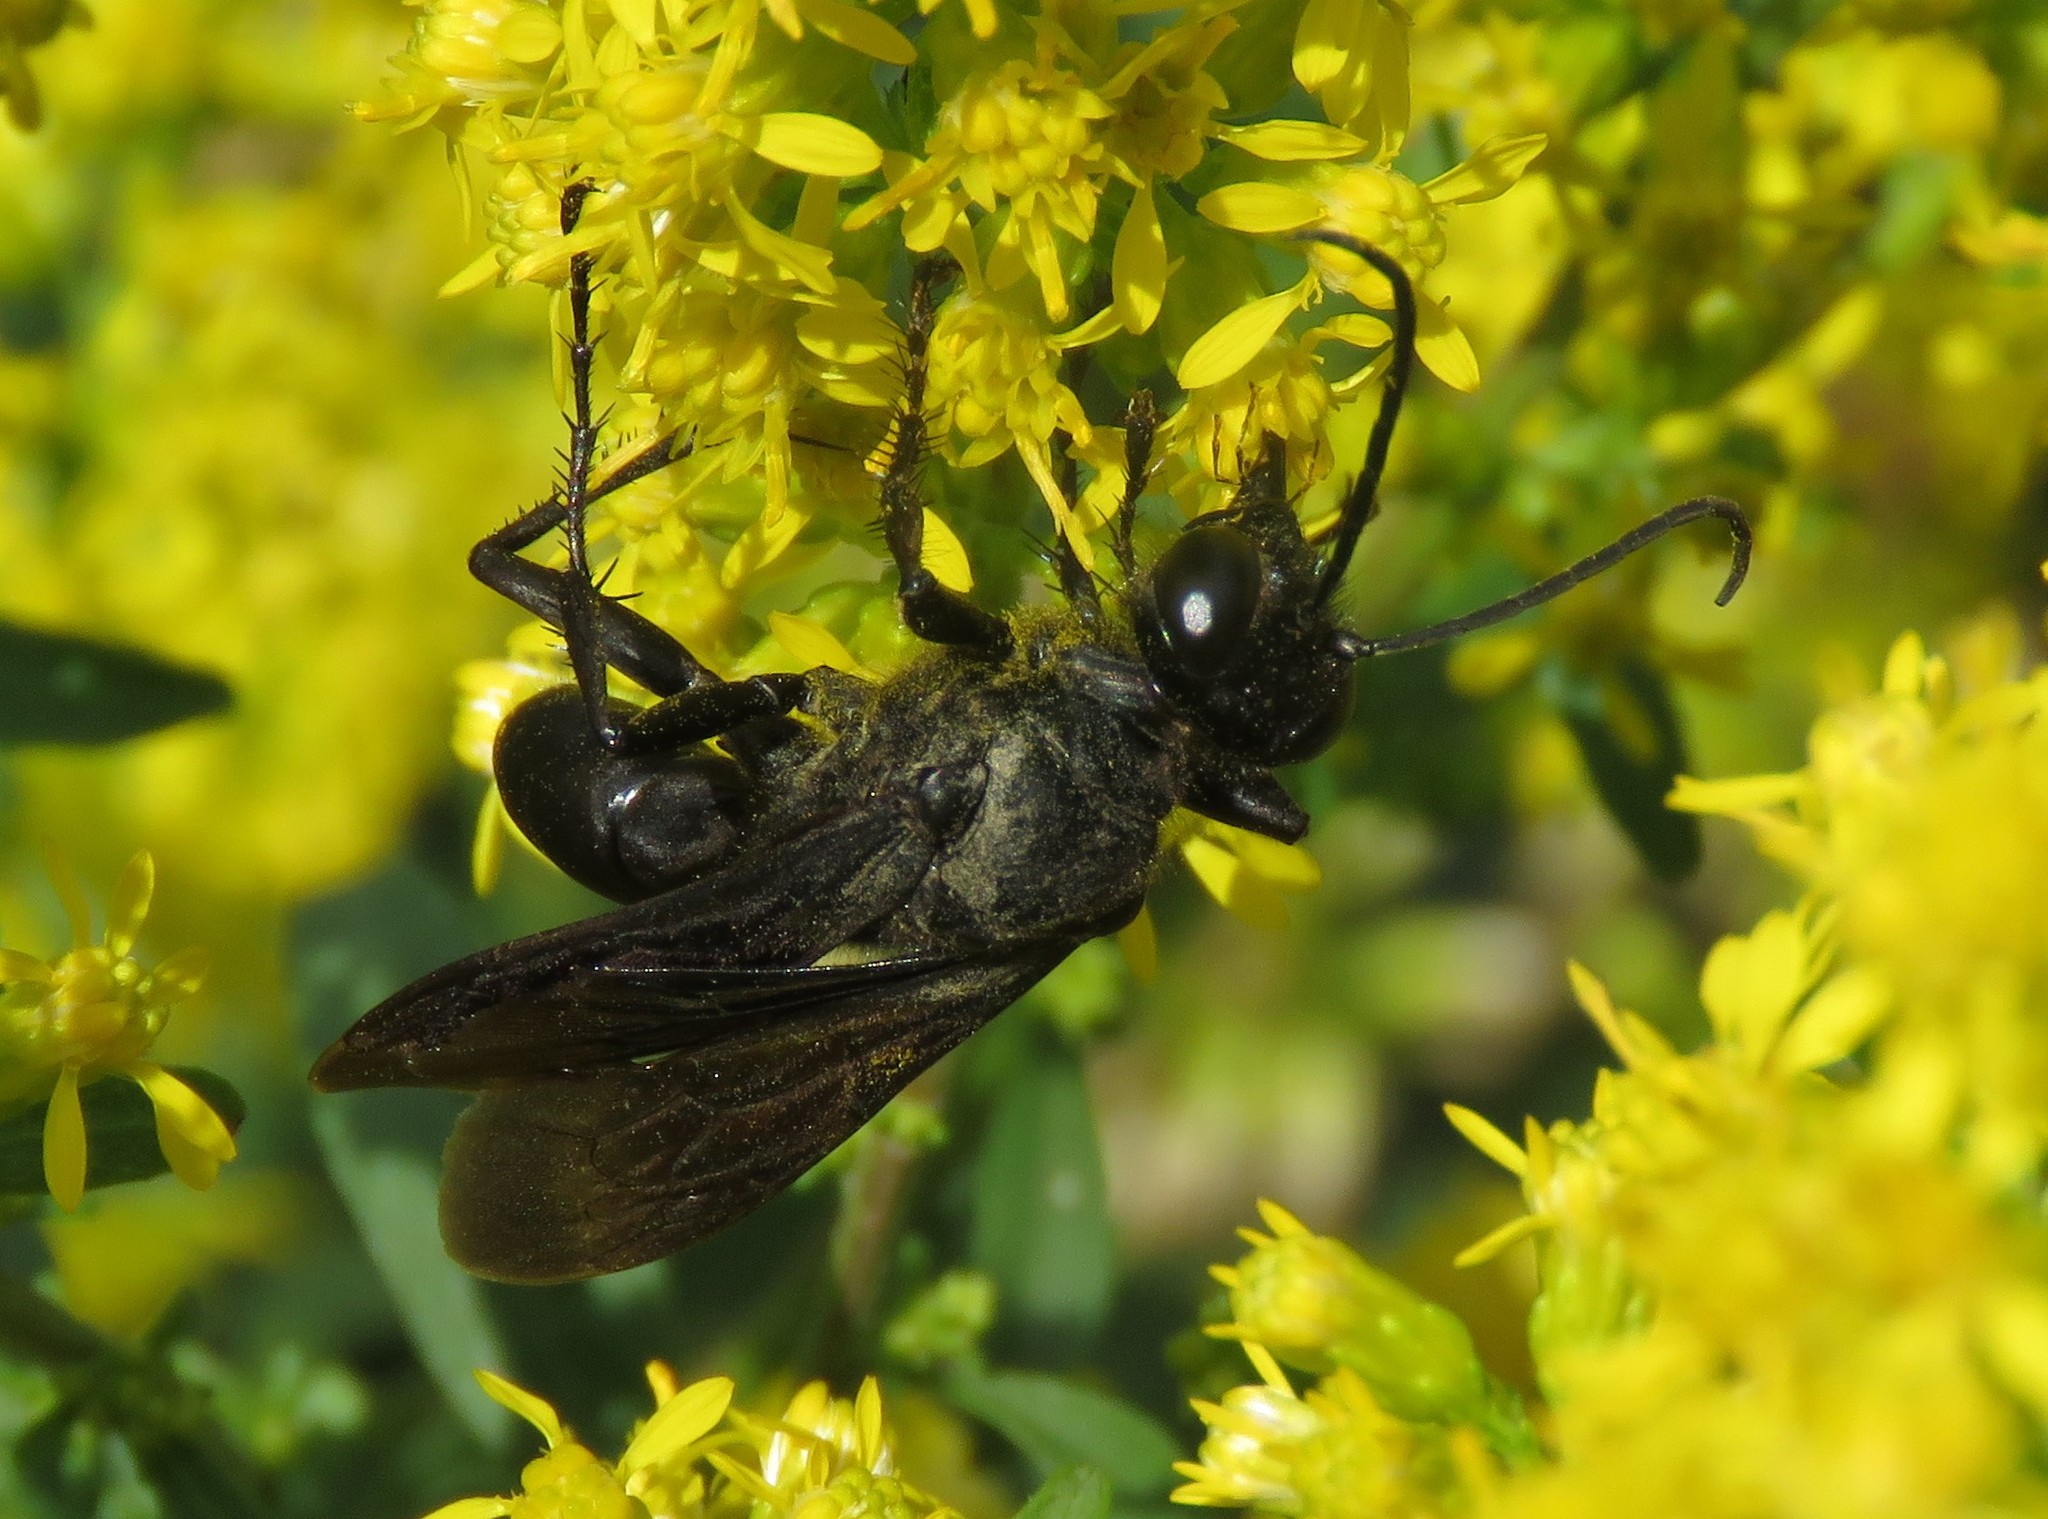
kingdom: Animalia
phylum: Arthropoda
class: Insecta
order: Hymenoptera
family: Sphecidae
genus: Sphex
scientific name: Sphex pensylvanicus
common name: Great black digger wasp
